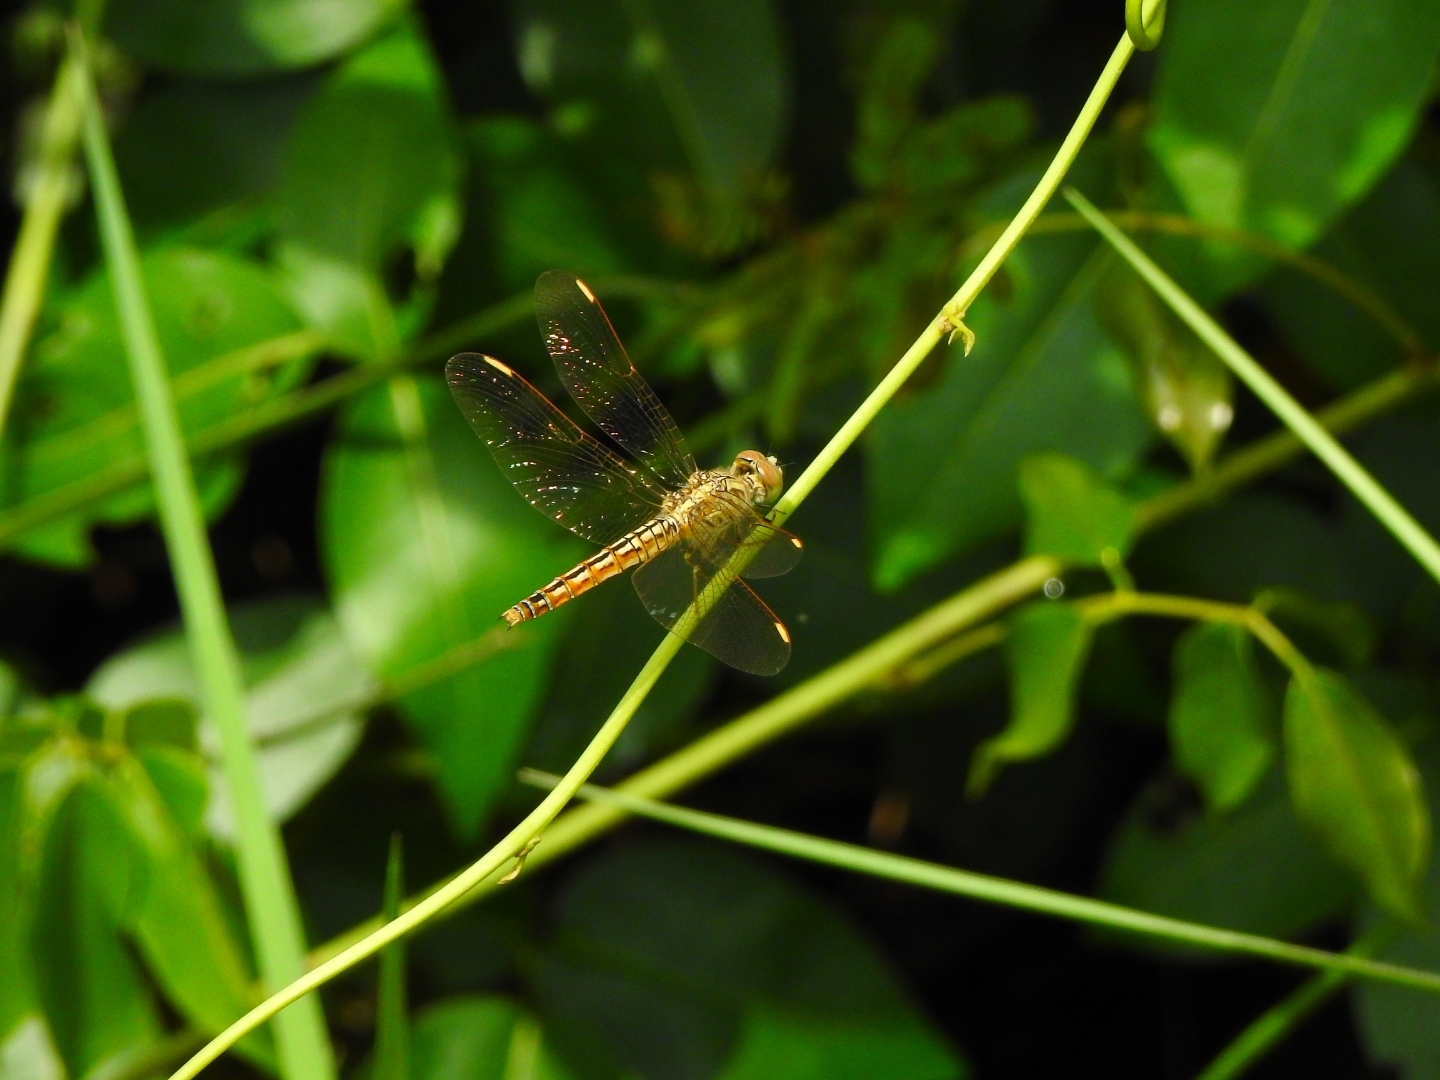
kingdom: Animalia
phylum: Arthropoda
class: Insecta
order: Odonata
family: Libellulidae
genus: Brachythemis
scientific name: Brachythemis contaminata
